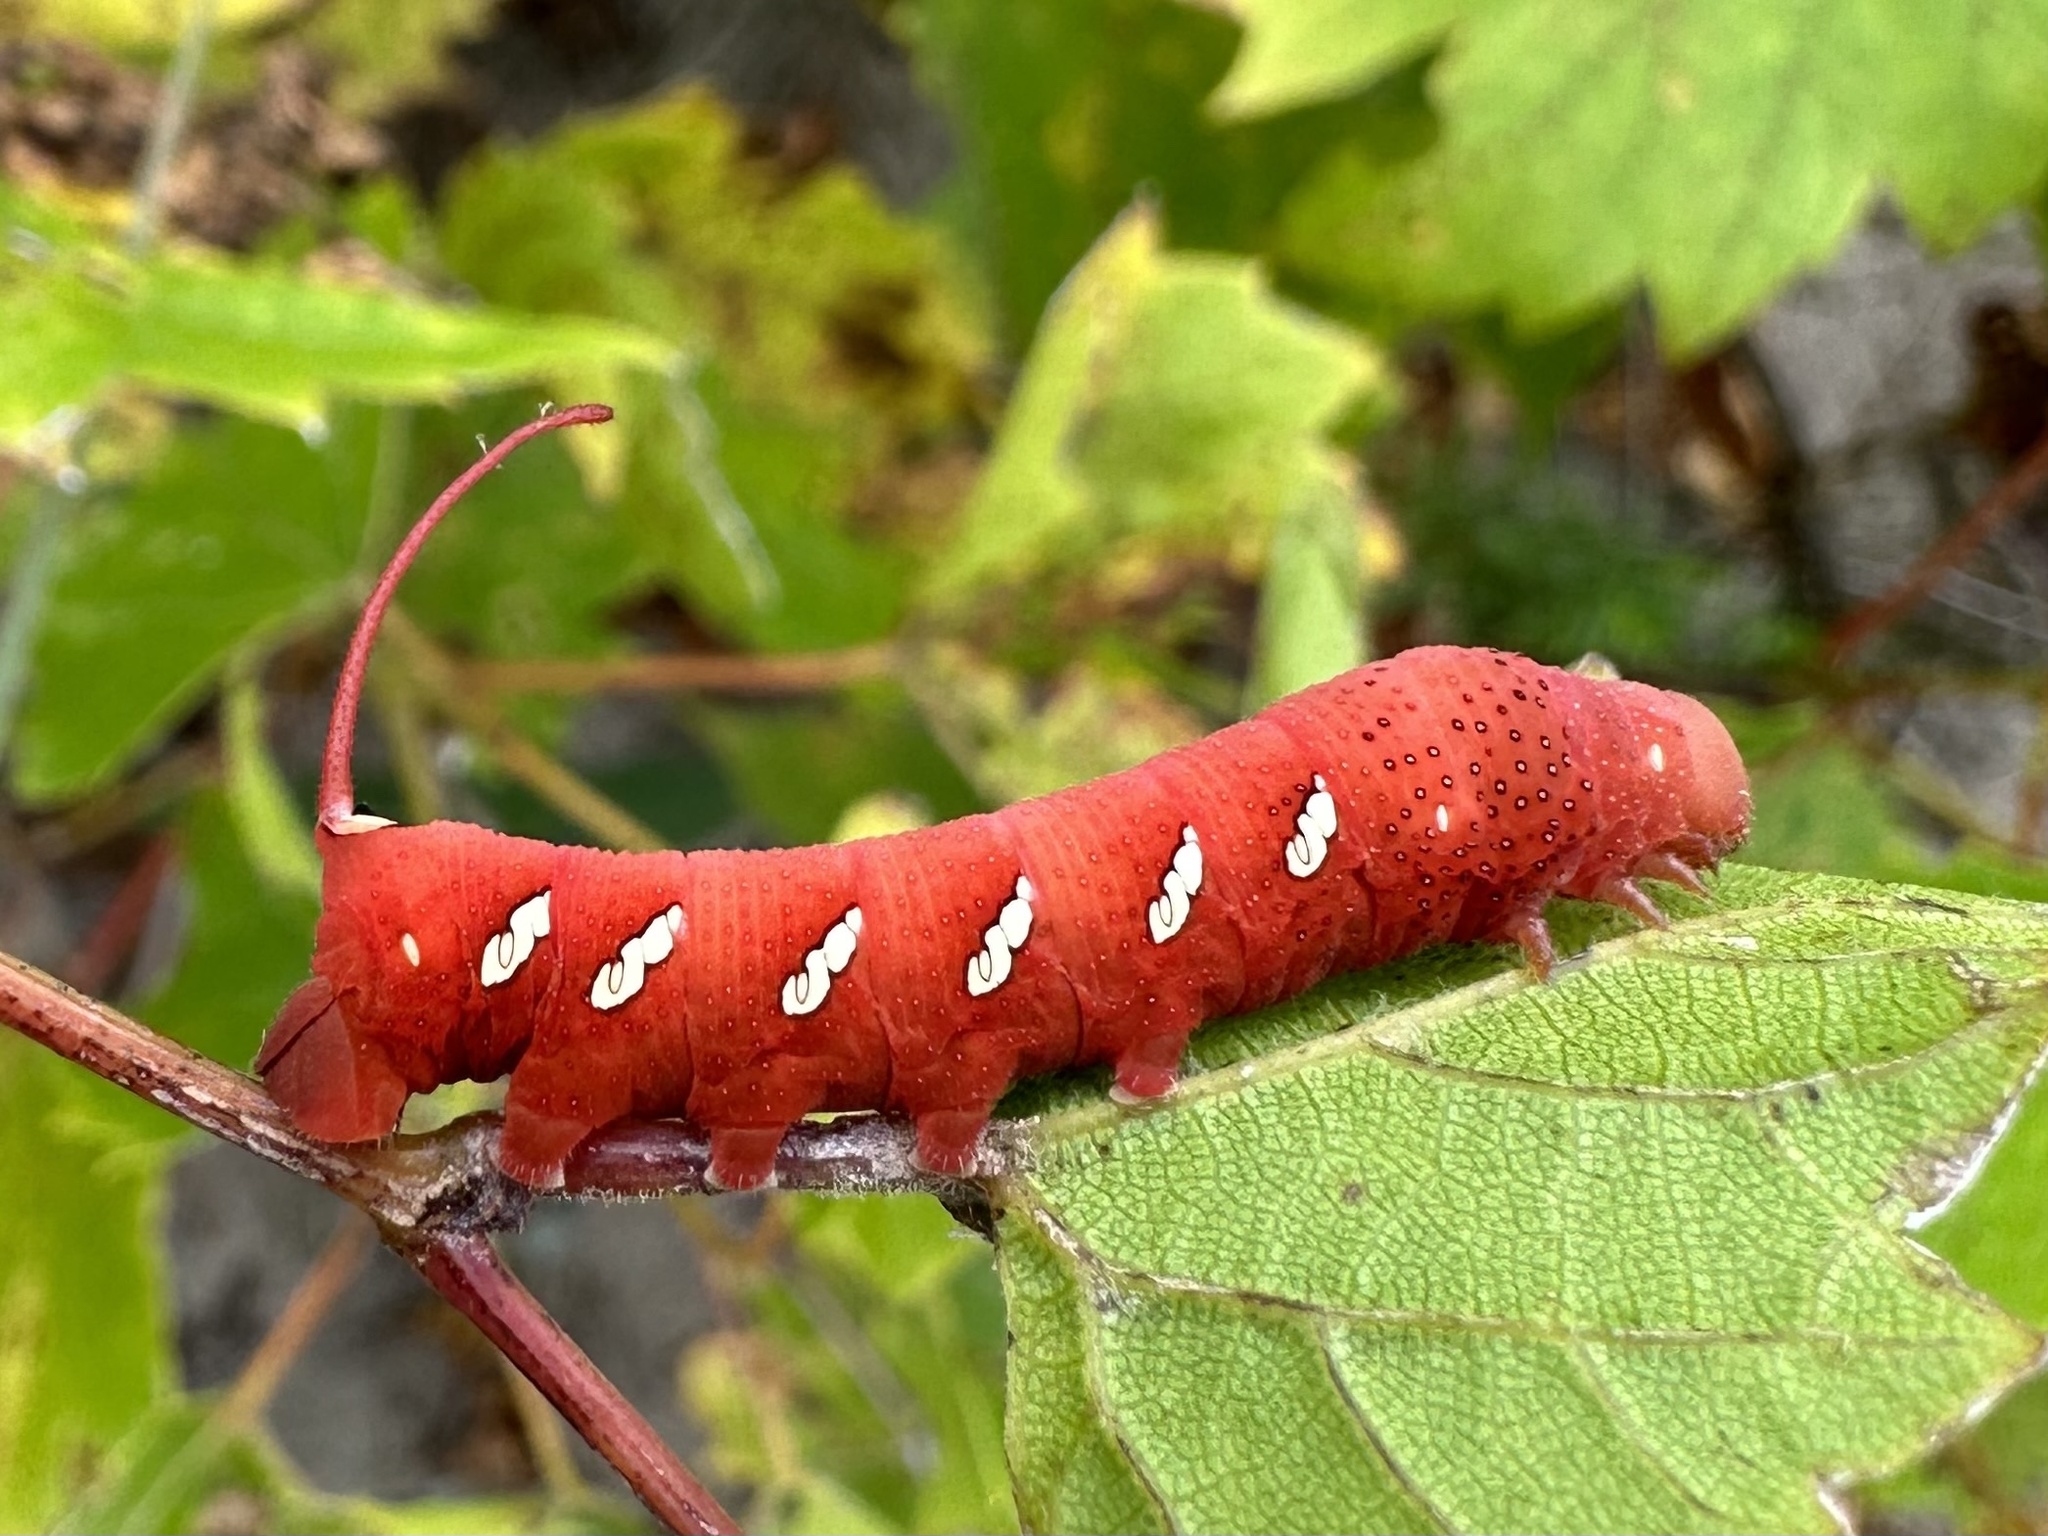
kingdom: Animalia
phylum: Arthropoda
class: Insecta
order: Lepidoptera
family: Sphingidae
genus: Eumorpha
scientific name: Eumorpha achemon
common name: Achemon sphinx
